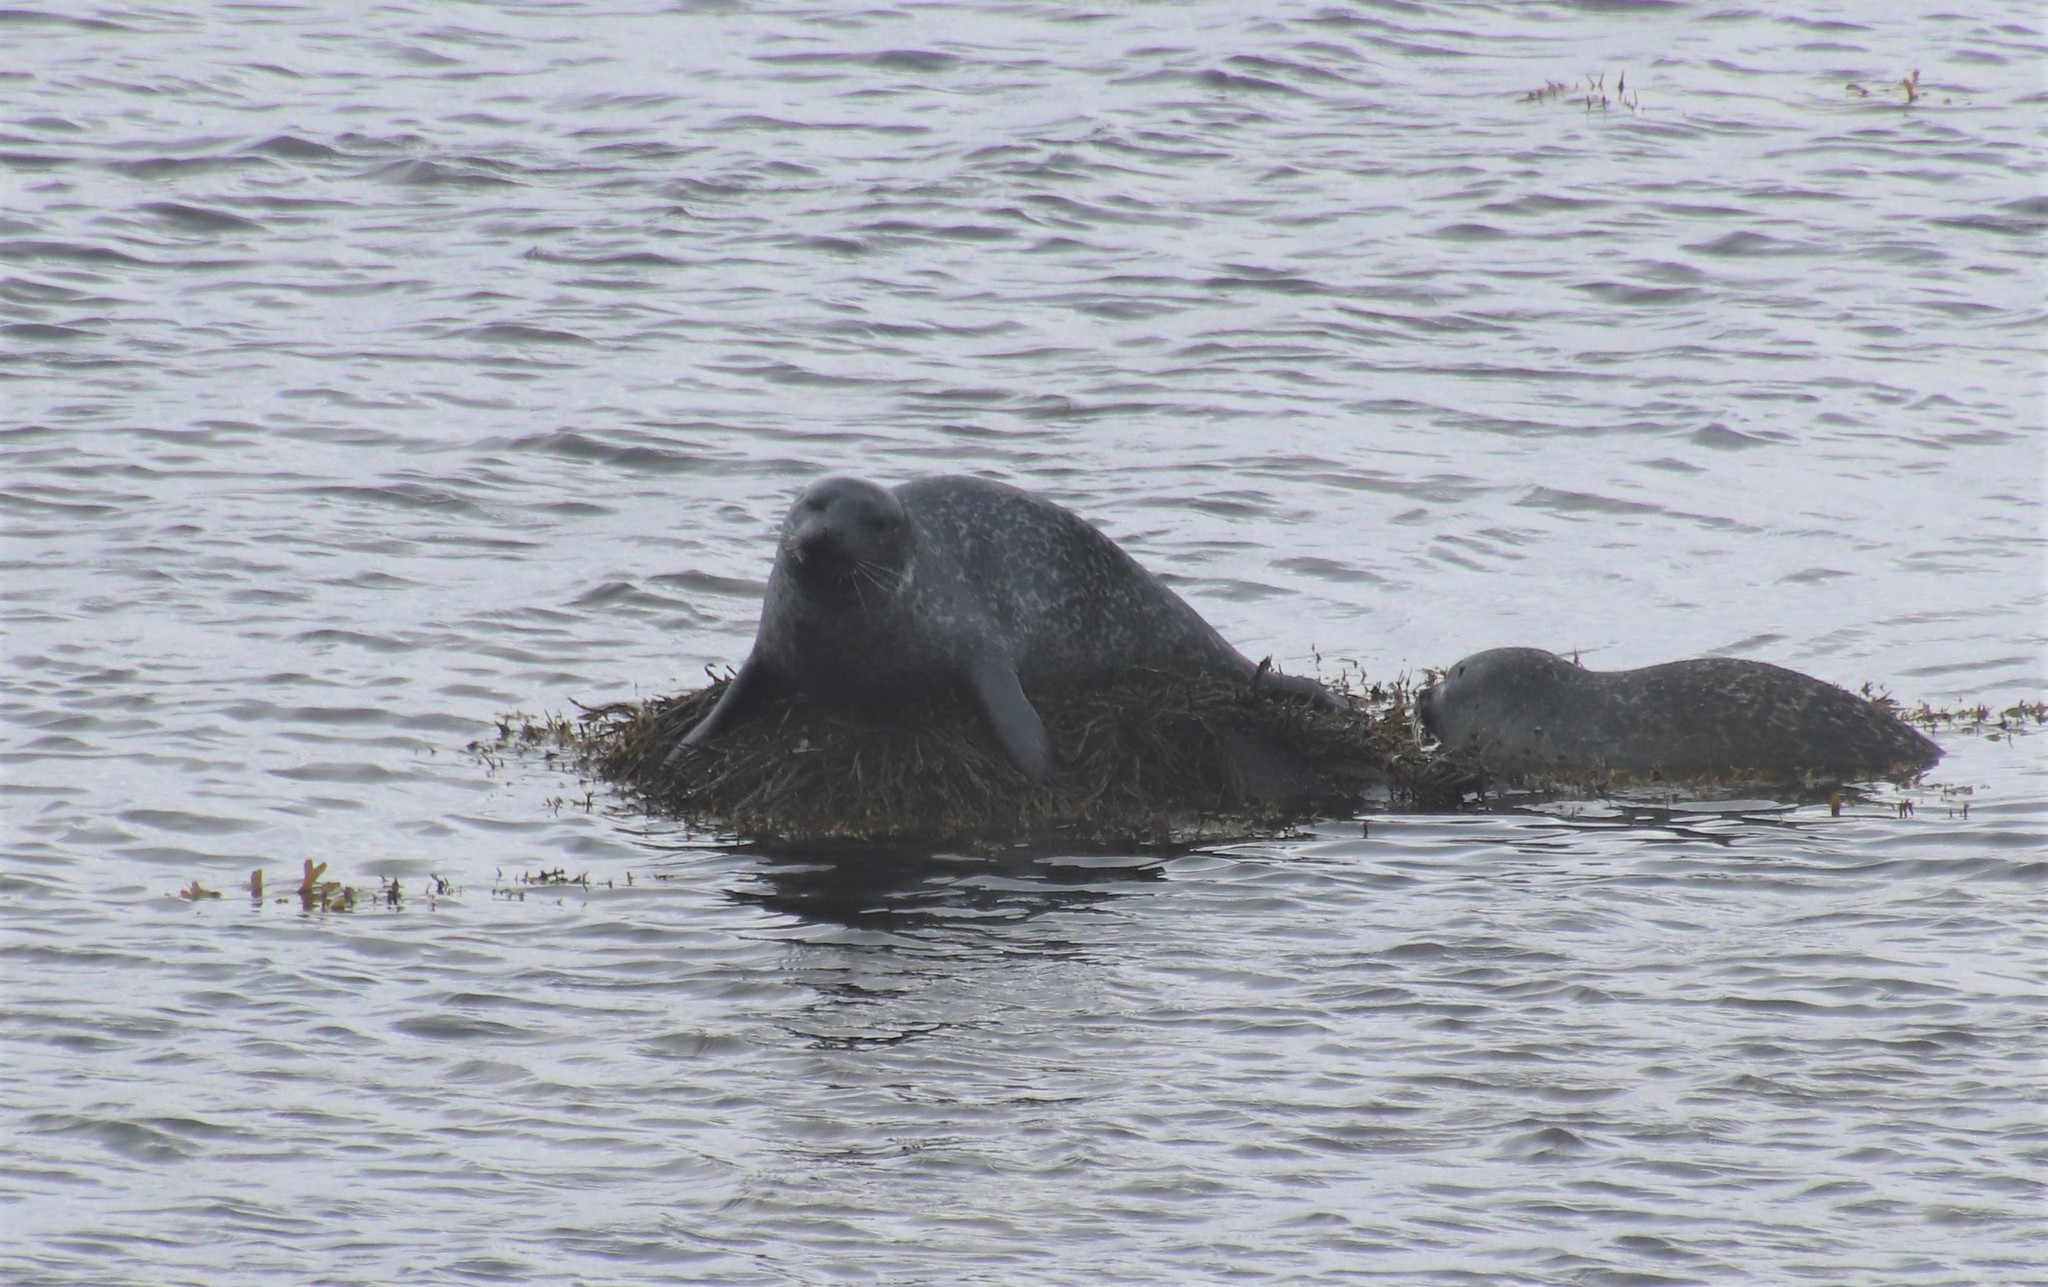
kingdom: Animalia
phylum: Chordata
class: Mammalia
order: Carnivora
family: Phocidae
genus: Phoca
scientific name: Phoca vitulina
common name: Harbor seal
